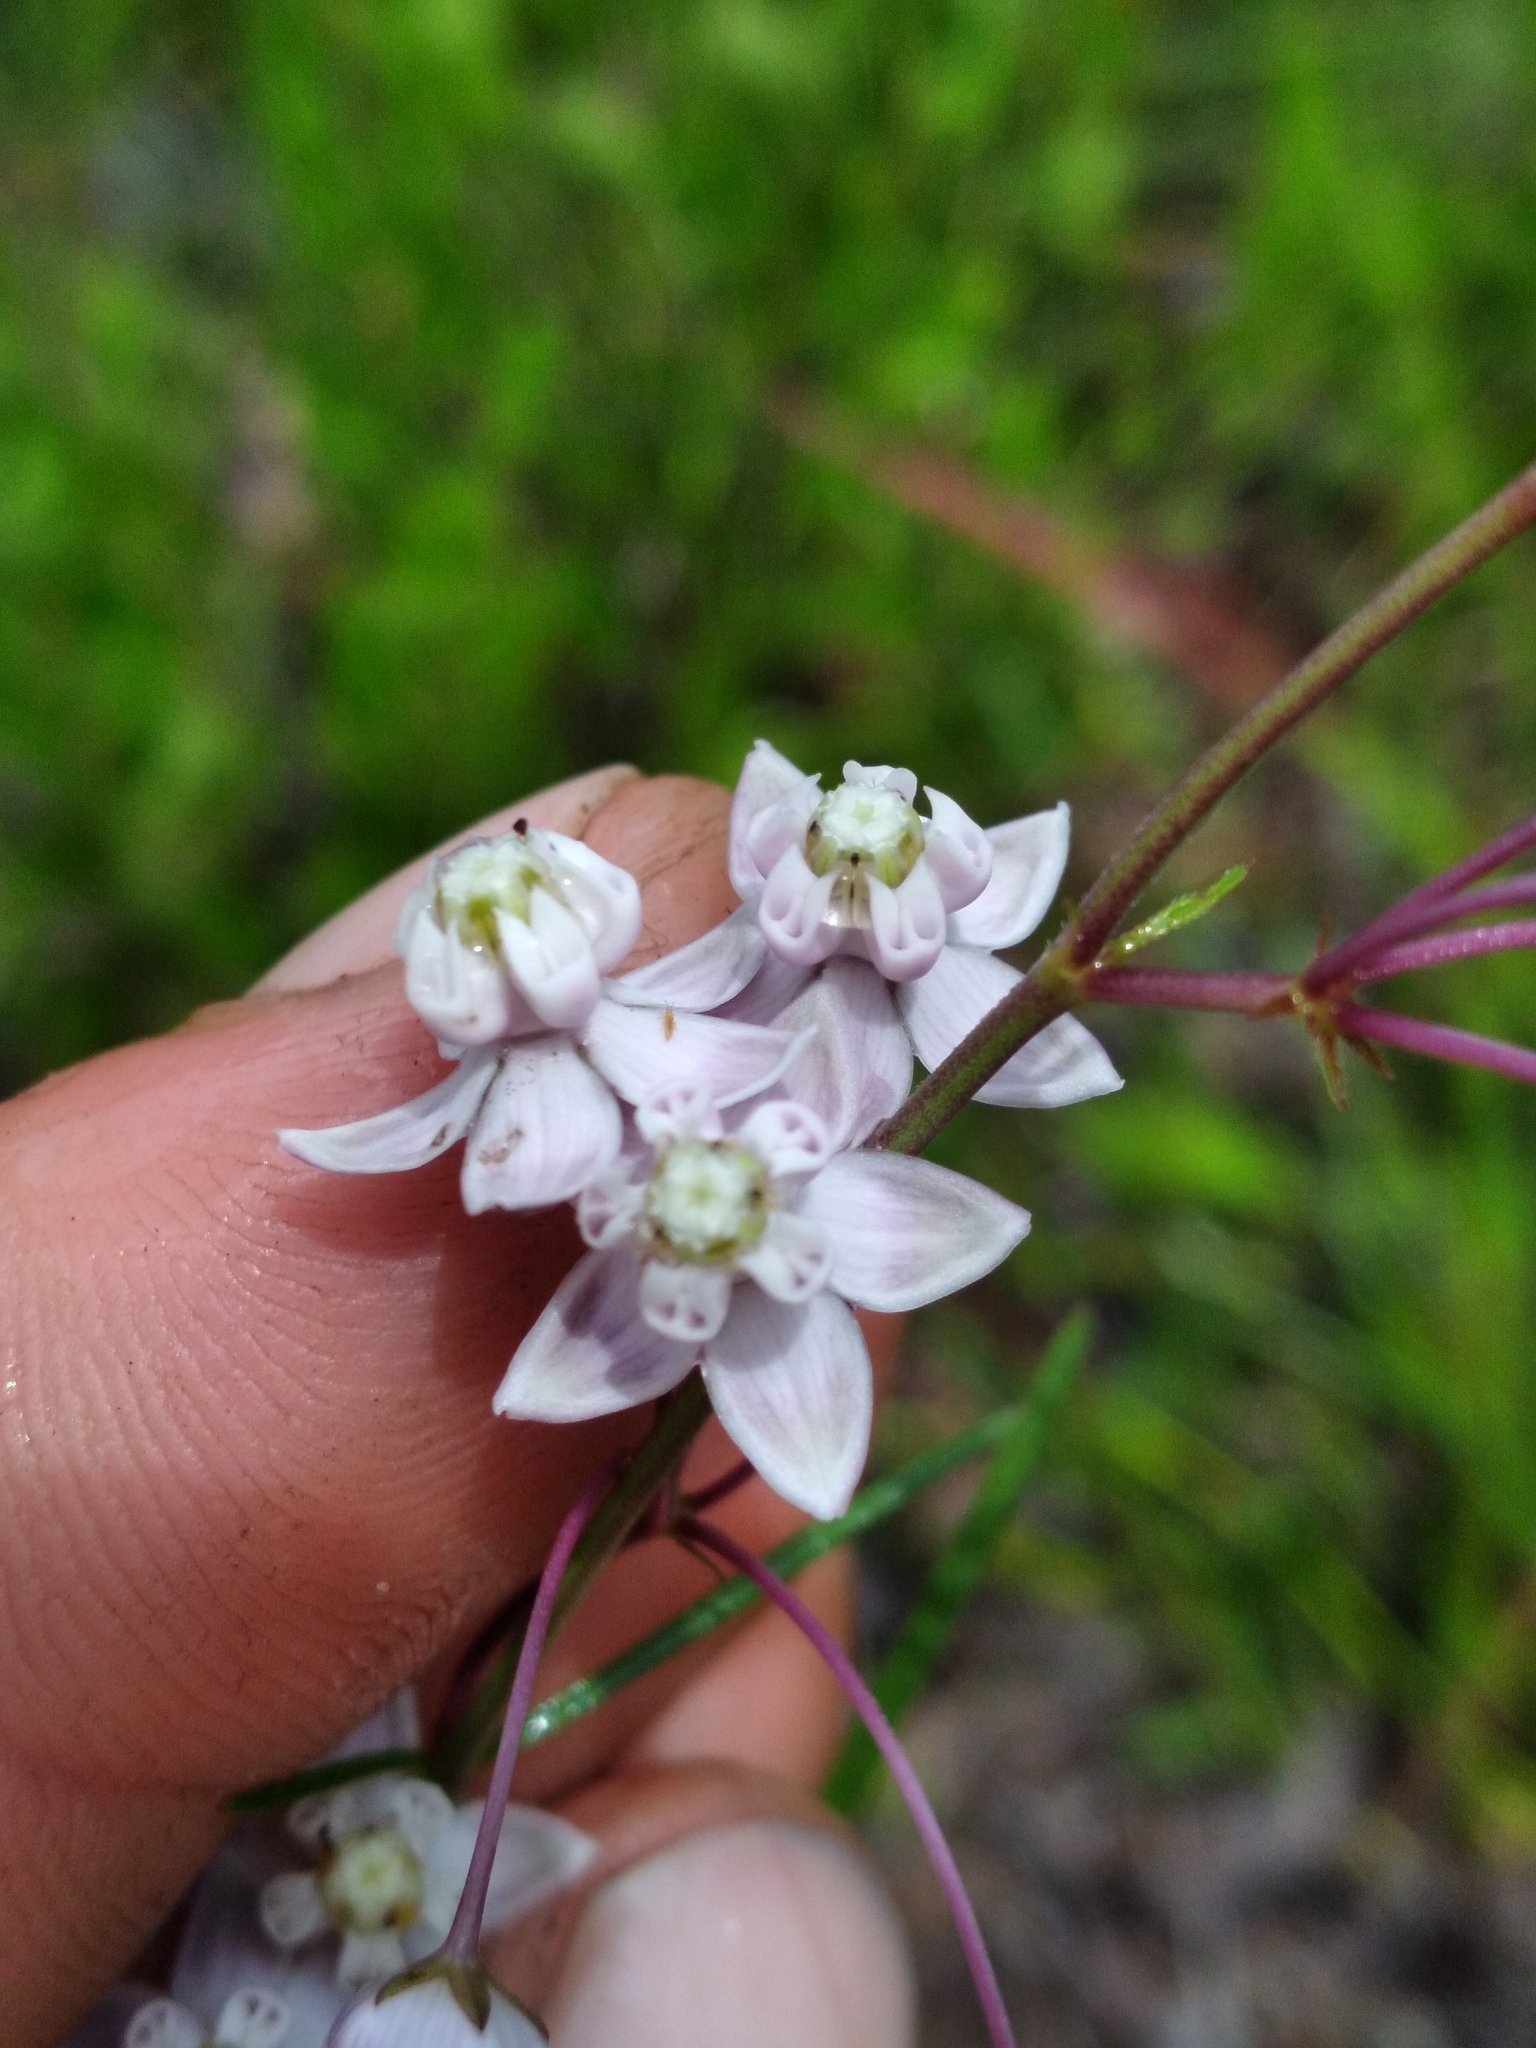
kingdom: Plantae
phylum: Tracheophyta
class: Magnoliopsida
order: Gentianales
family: Apocynaceae
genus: Asclepias
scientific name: Asclepias cinerea
